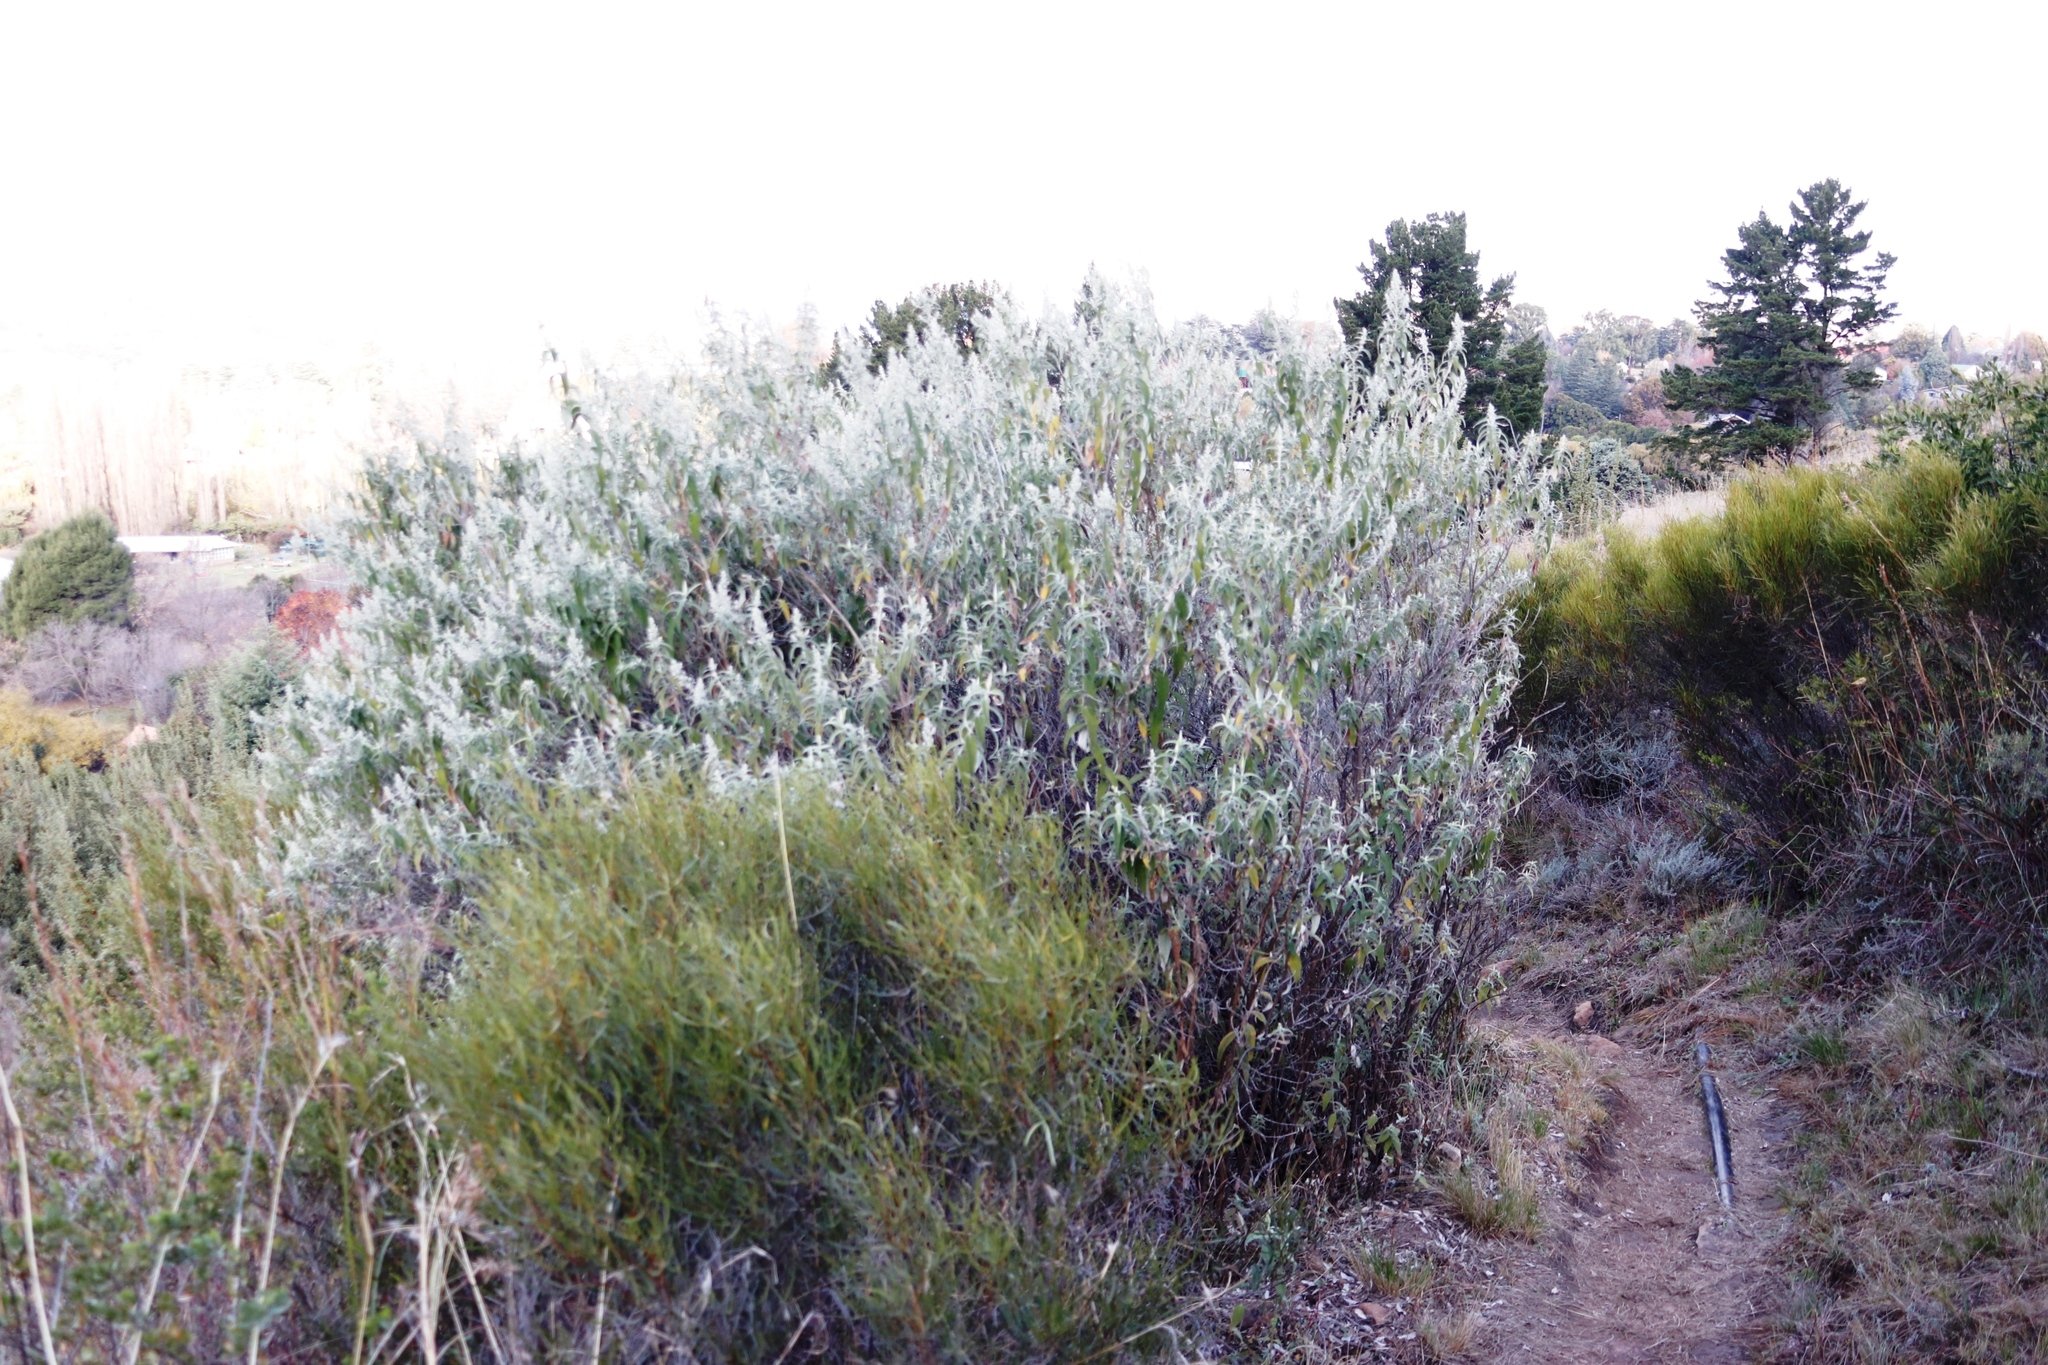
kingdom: Plantae
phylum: Tracheophyta
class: Magnoliopsida
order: Lamiales
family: Scrophulariaceae
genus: Buddleja
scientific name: Buddleja salviifolia
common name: Sagewood
